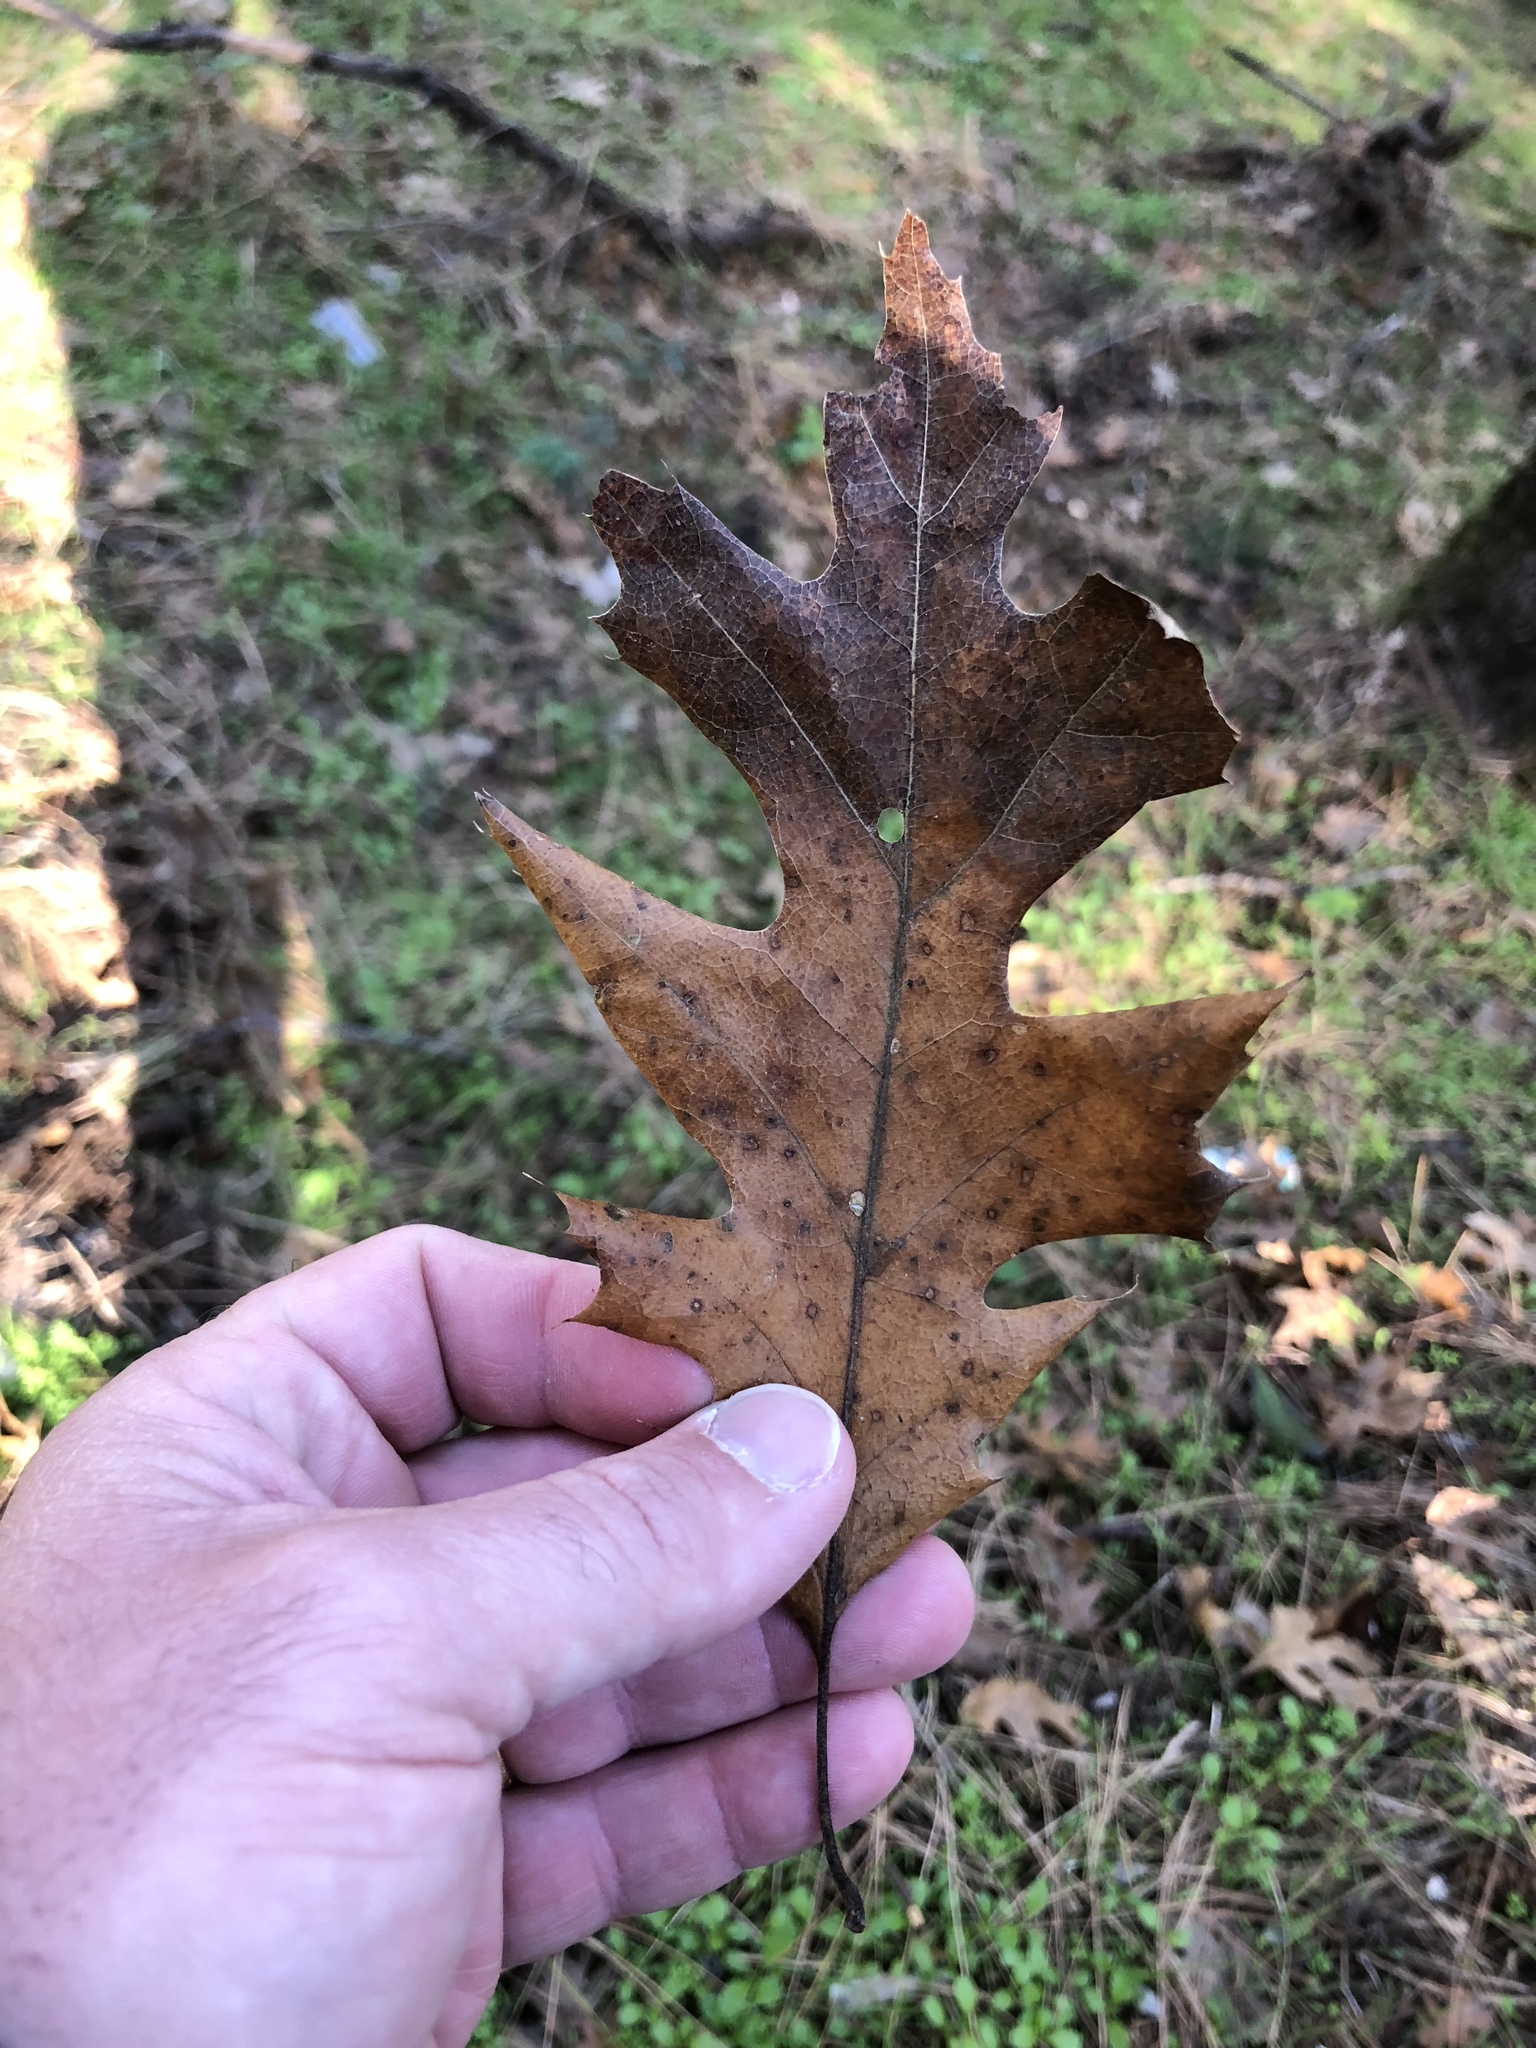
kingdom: Plantae
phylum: Tracheophyta
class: Magnoliopsida
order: Fagales
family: Fagaceae
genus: Quercus
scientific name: Quercus kelloggii
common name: California black oak
